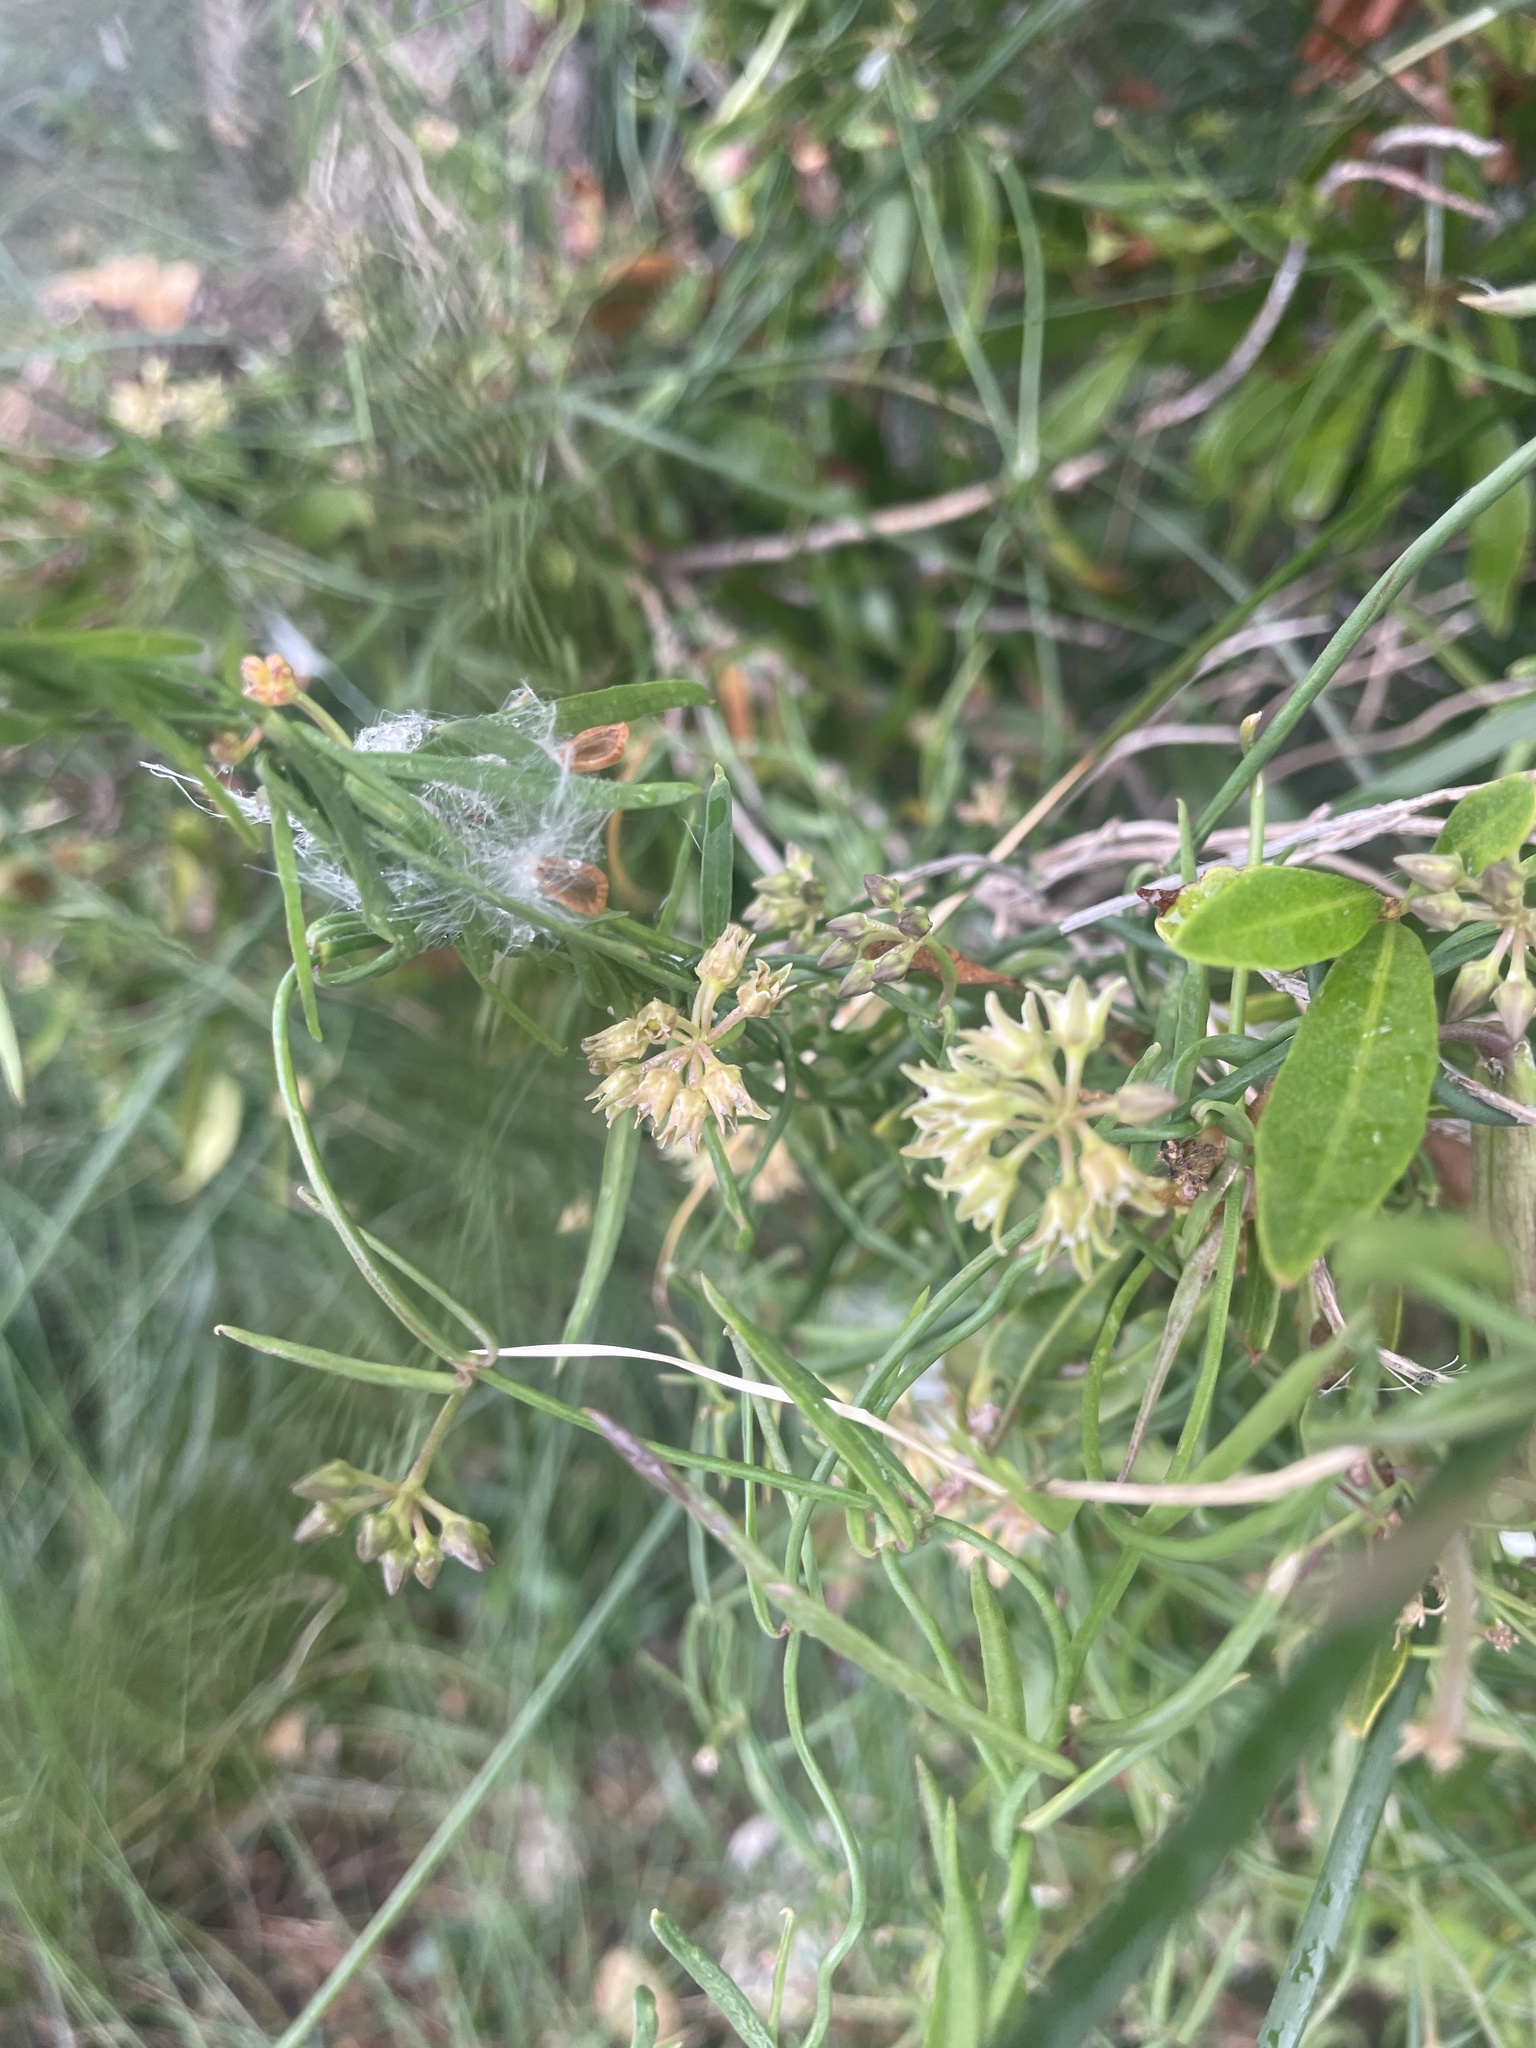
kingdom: Plantae
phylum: Tracheophyta
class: Magnoliopsida
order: Gentianales
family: Apocynaceae
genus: Pattalias
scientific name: Pattalias
